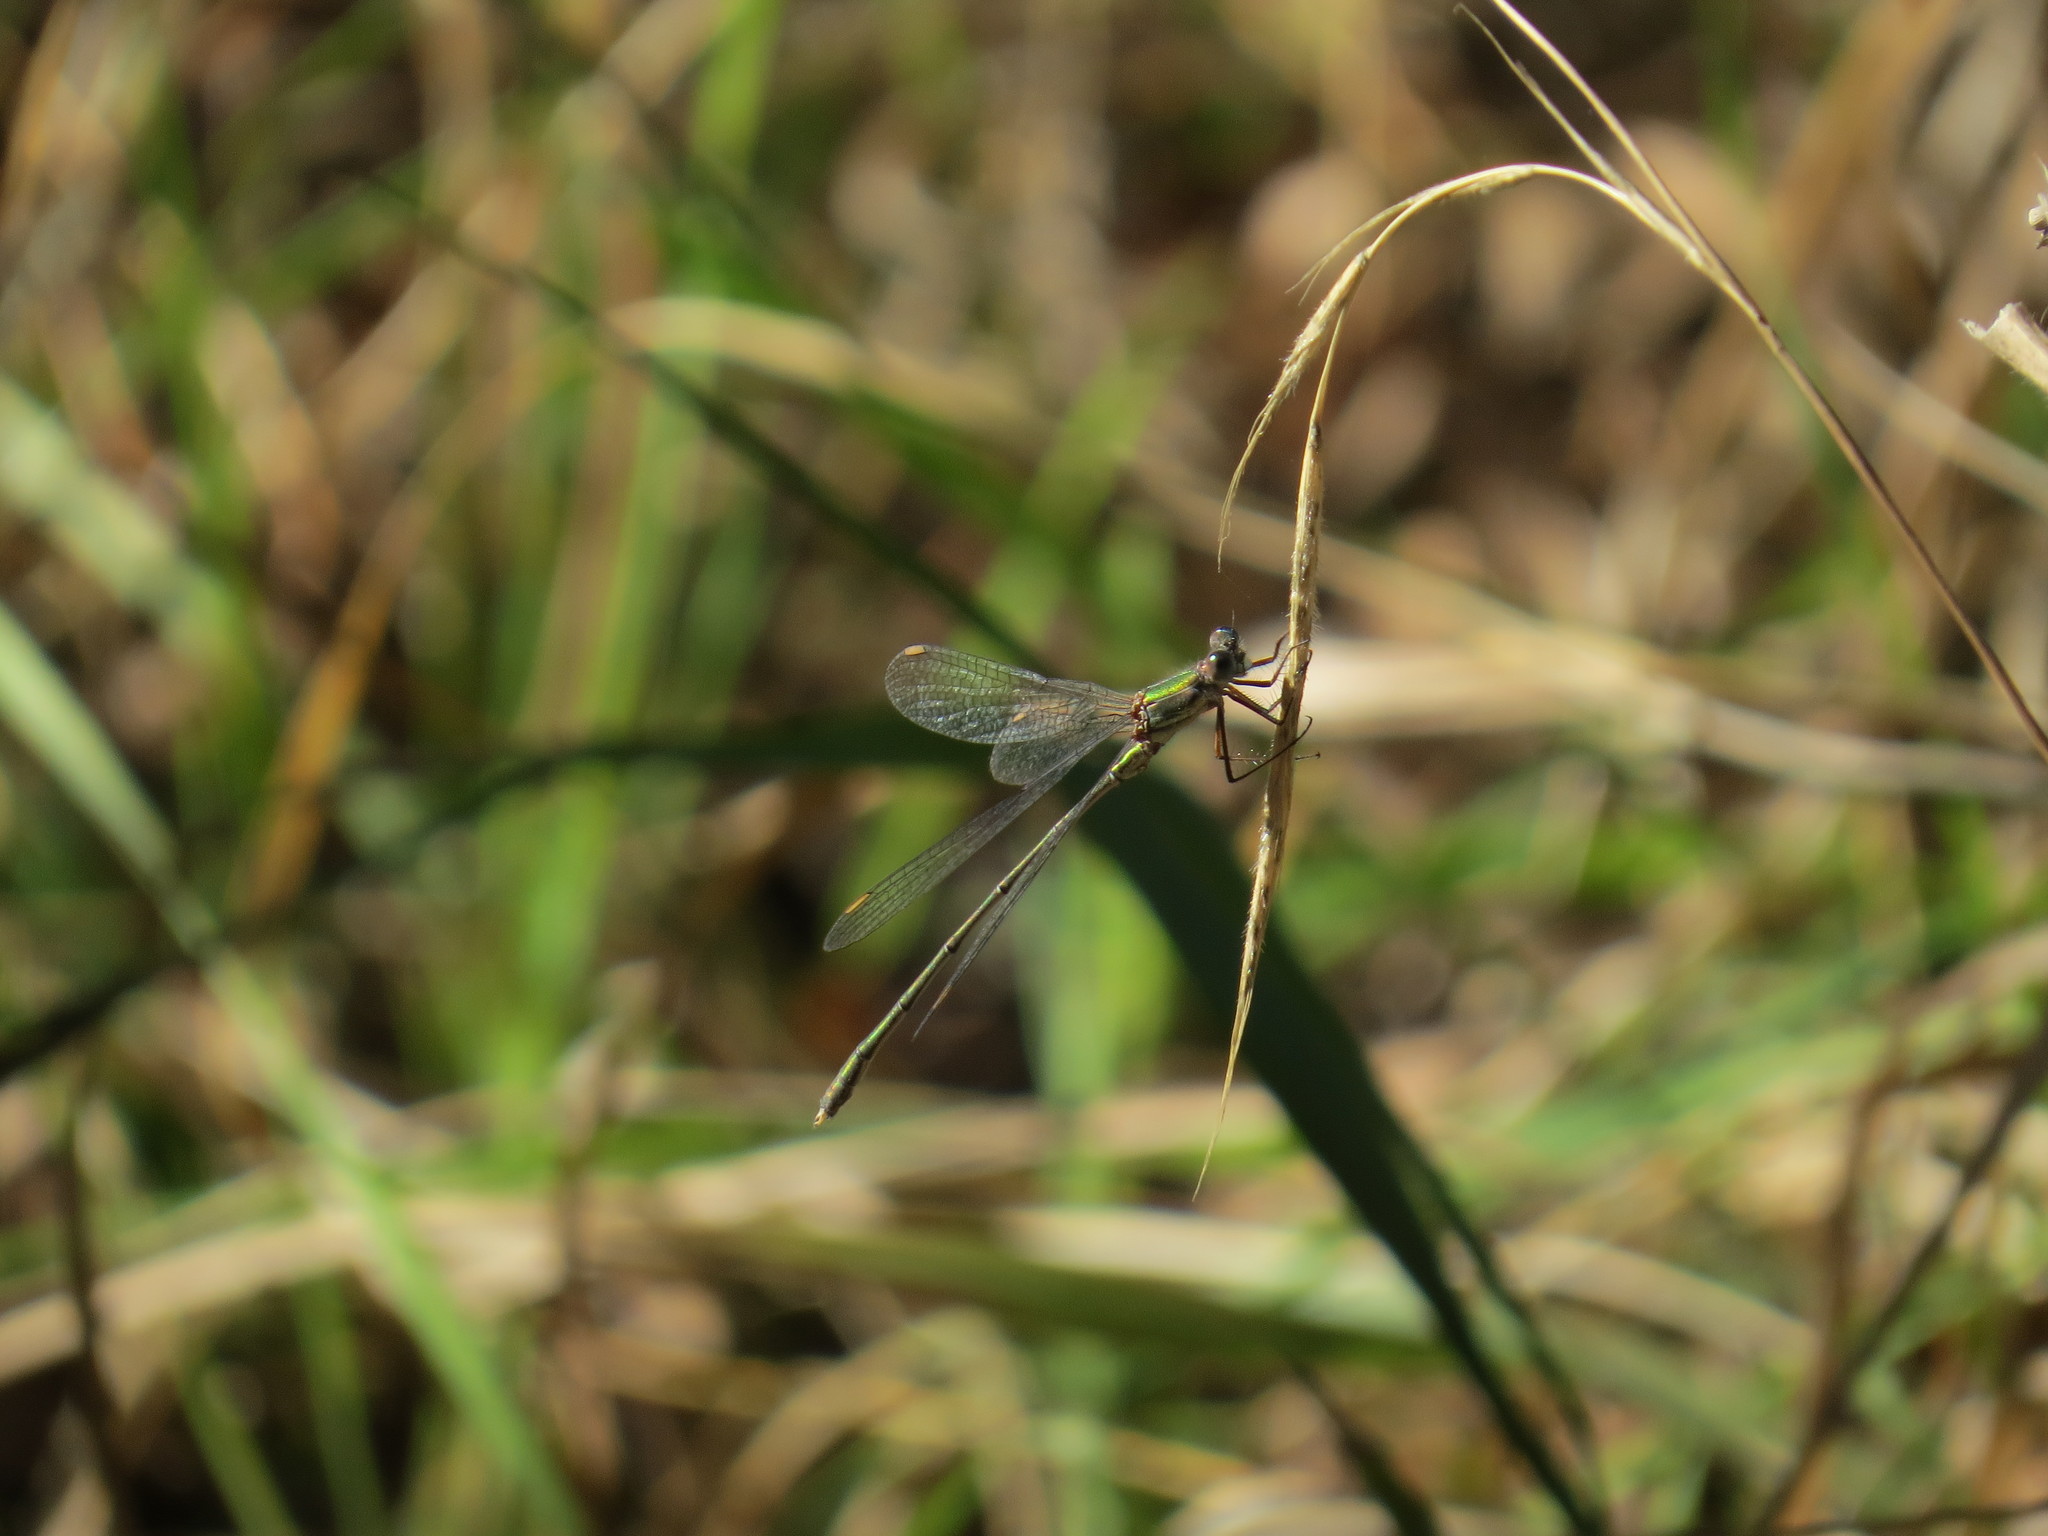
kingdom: Animalia
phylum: Arthropoda
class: Insecta
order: Odonata
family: Lestidae
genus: Chalcolestes
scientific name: Chalcolestes viridis
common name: Green emerald damselfly
